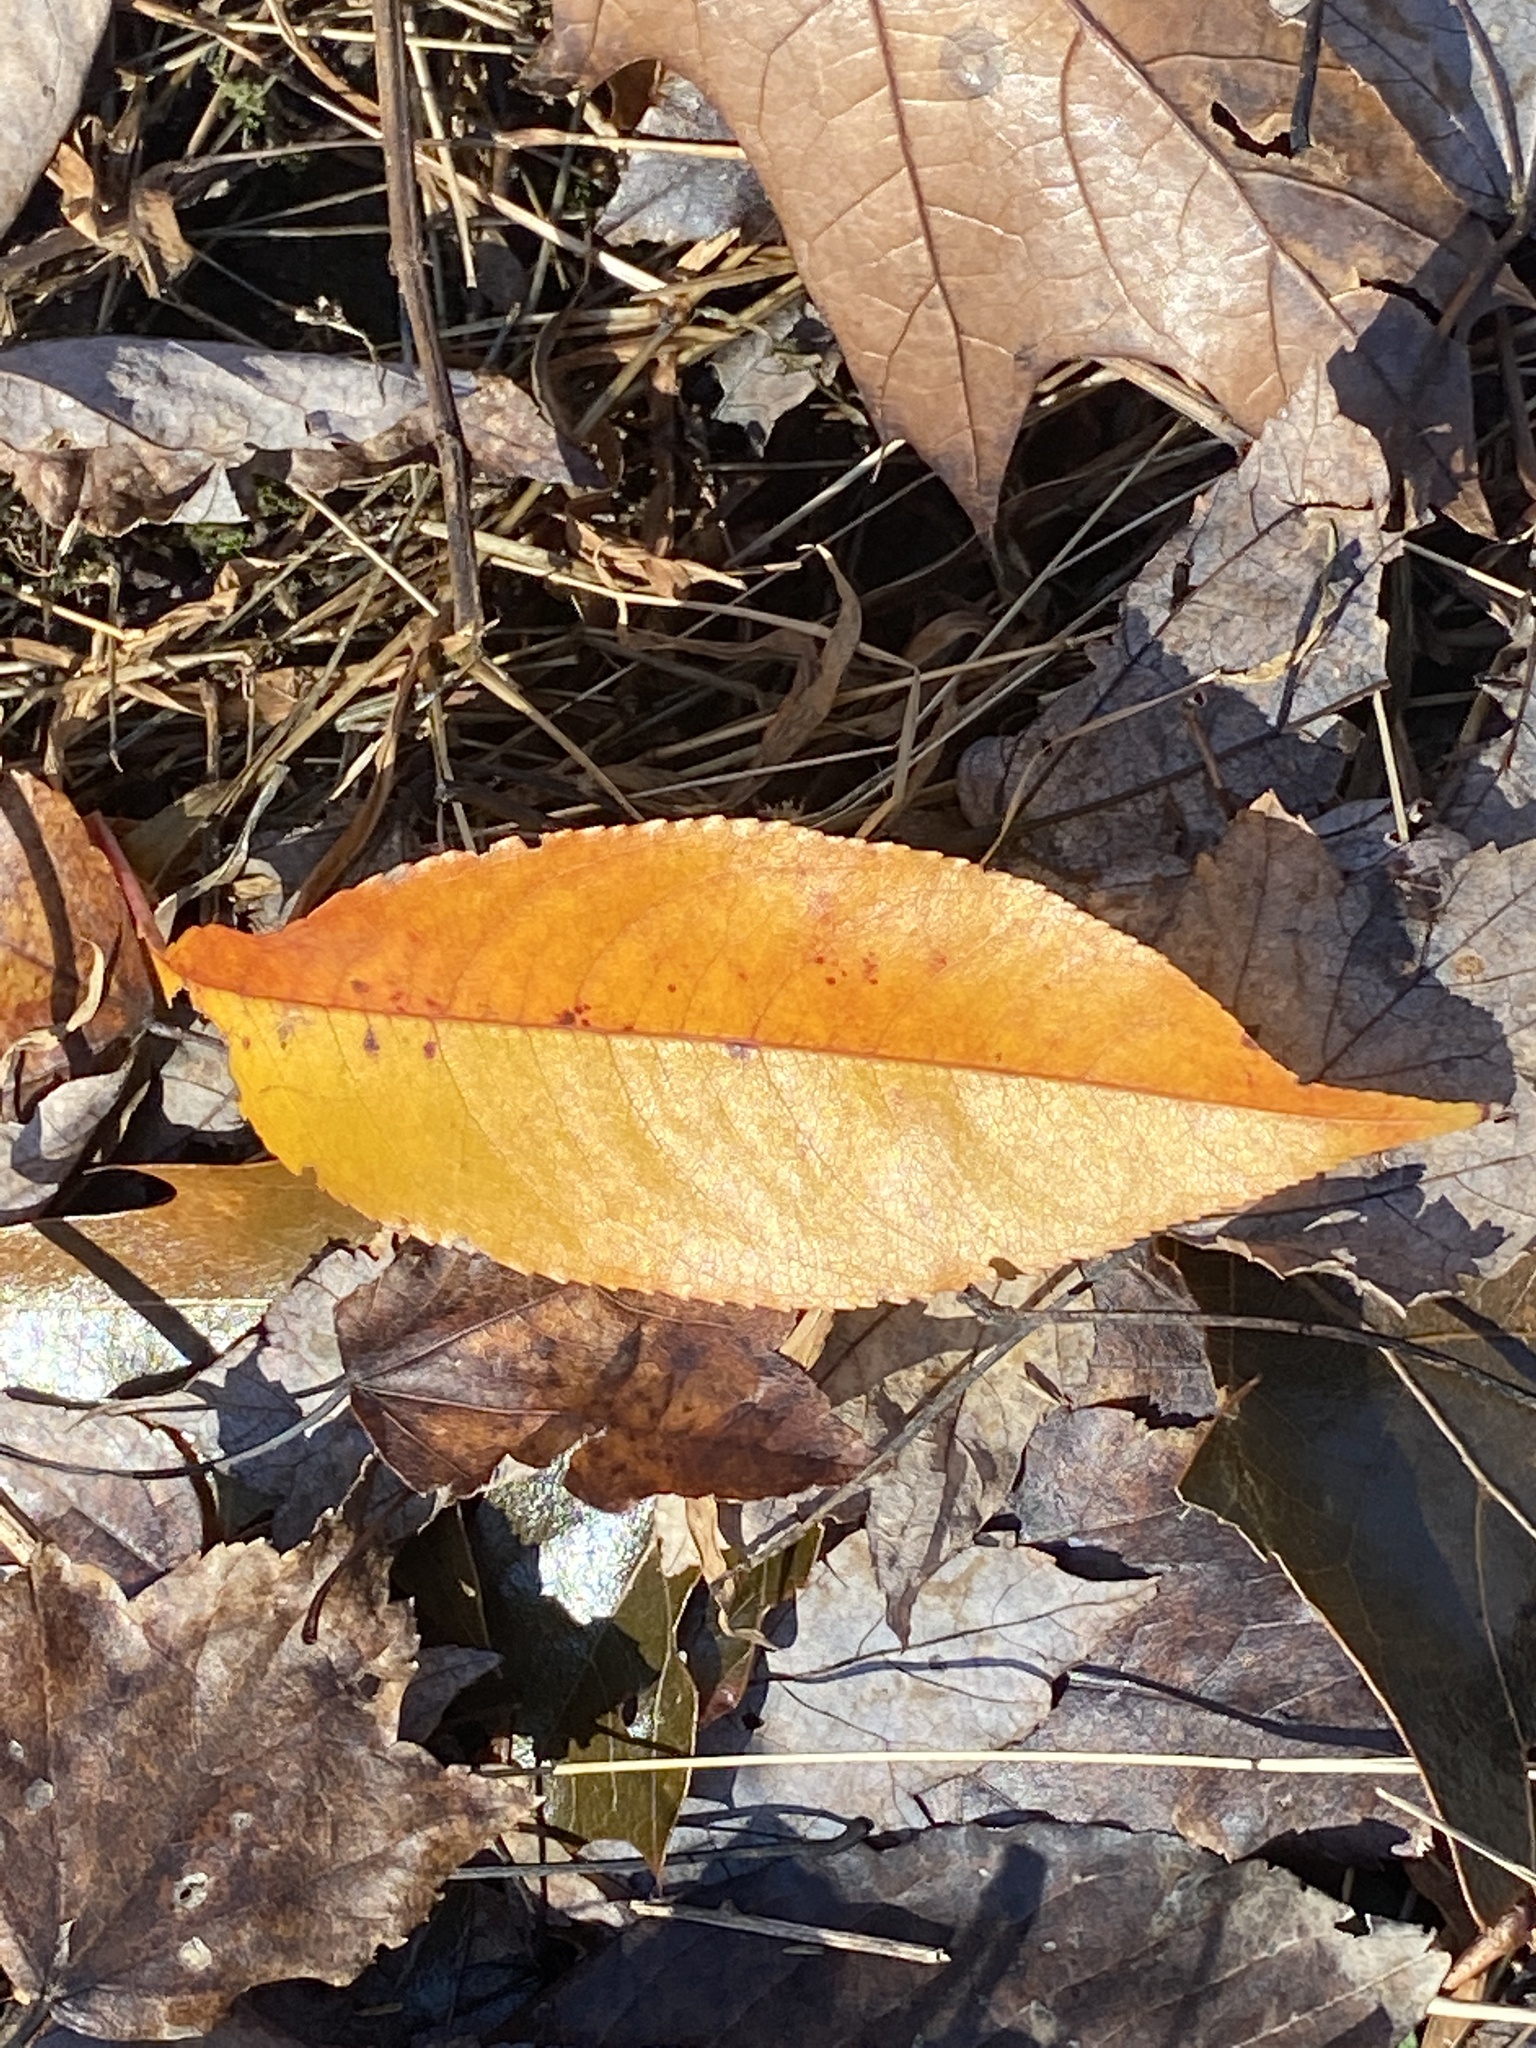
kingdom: Plantae
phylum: Tracheophyta
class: Magnoliopsida
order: Rosales
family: Rosaceae
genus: Prunus
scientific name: Prunus serotina
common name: Black cherry
